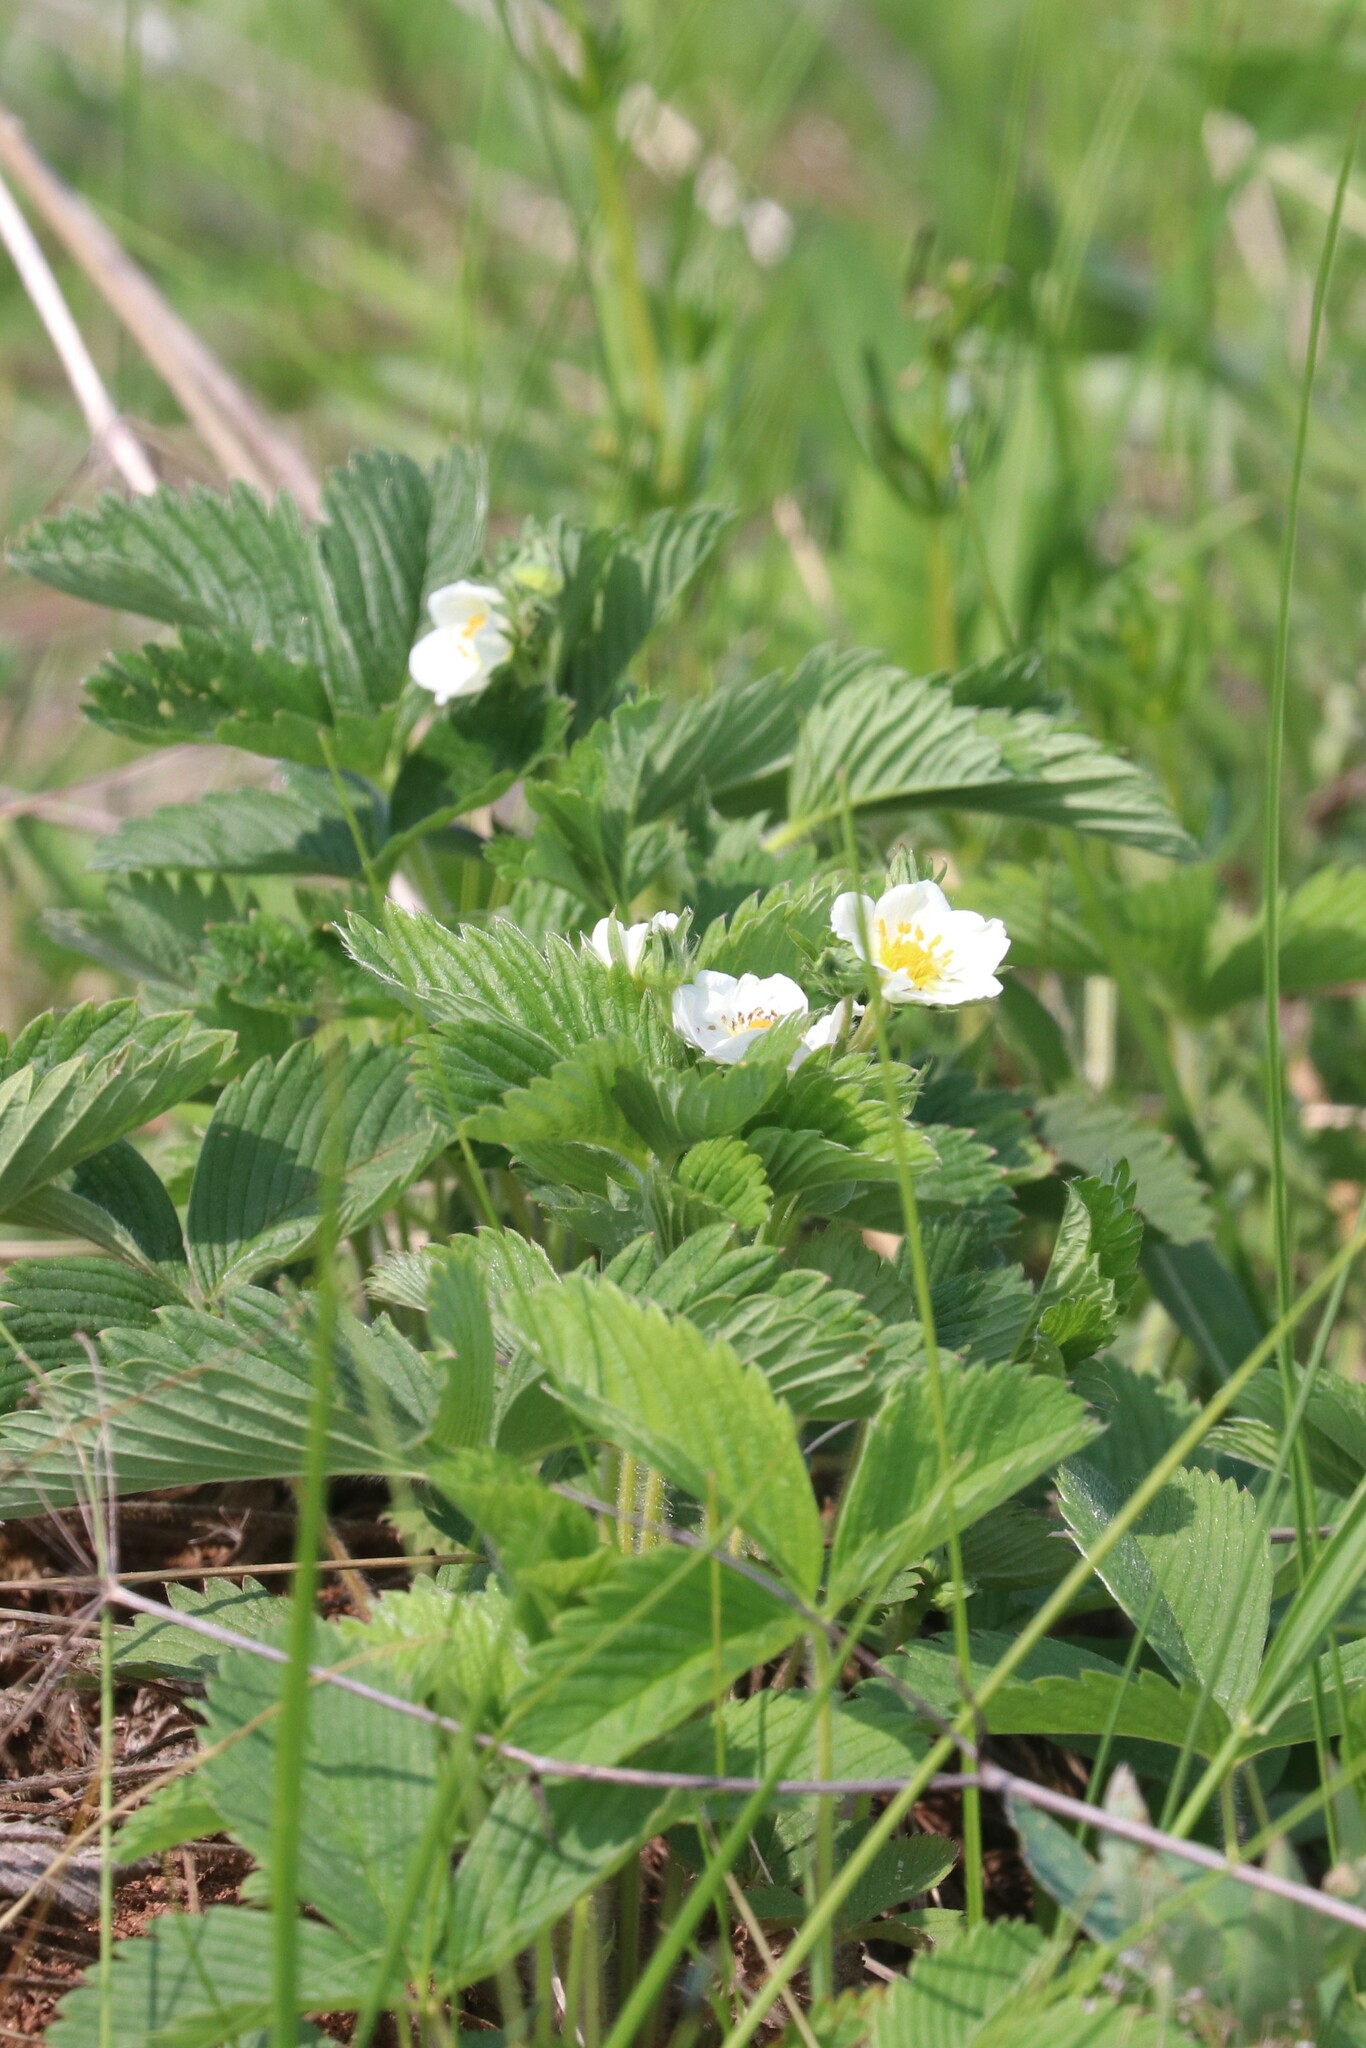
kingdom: Plantae
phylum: Tracheophyta
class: Magnoliopsida
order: Rosales
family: Rosaceae
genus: Fragaria
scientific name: Fragaria viridis
